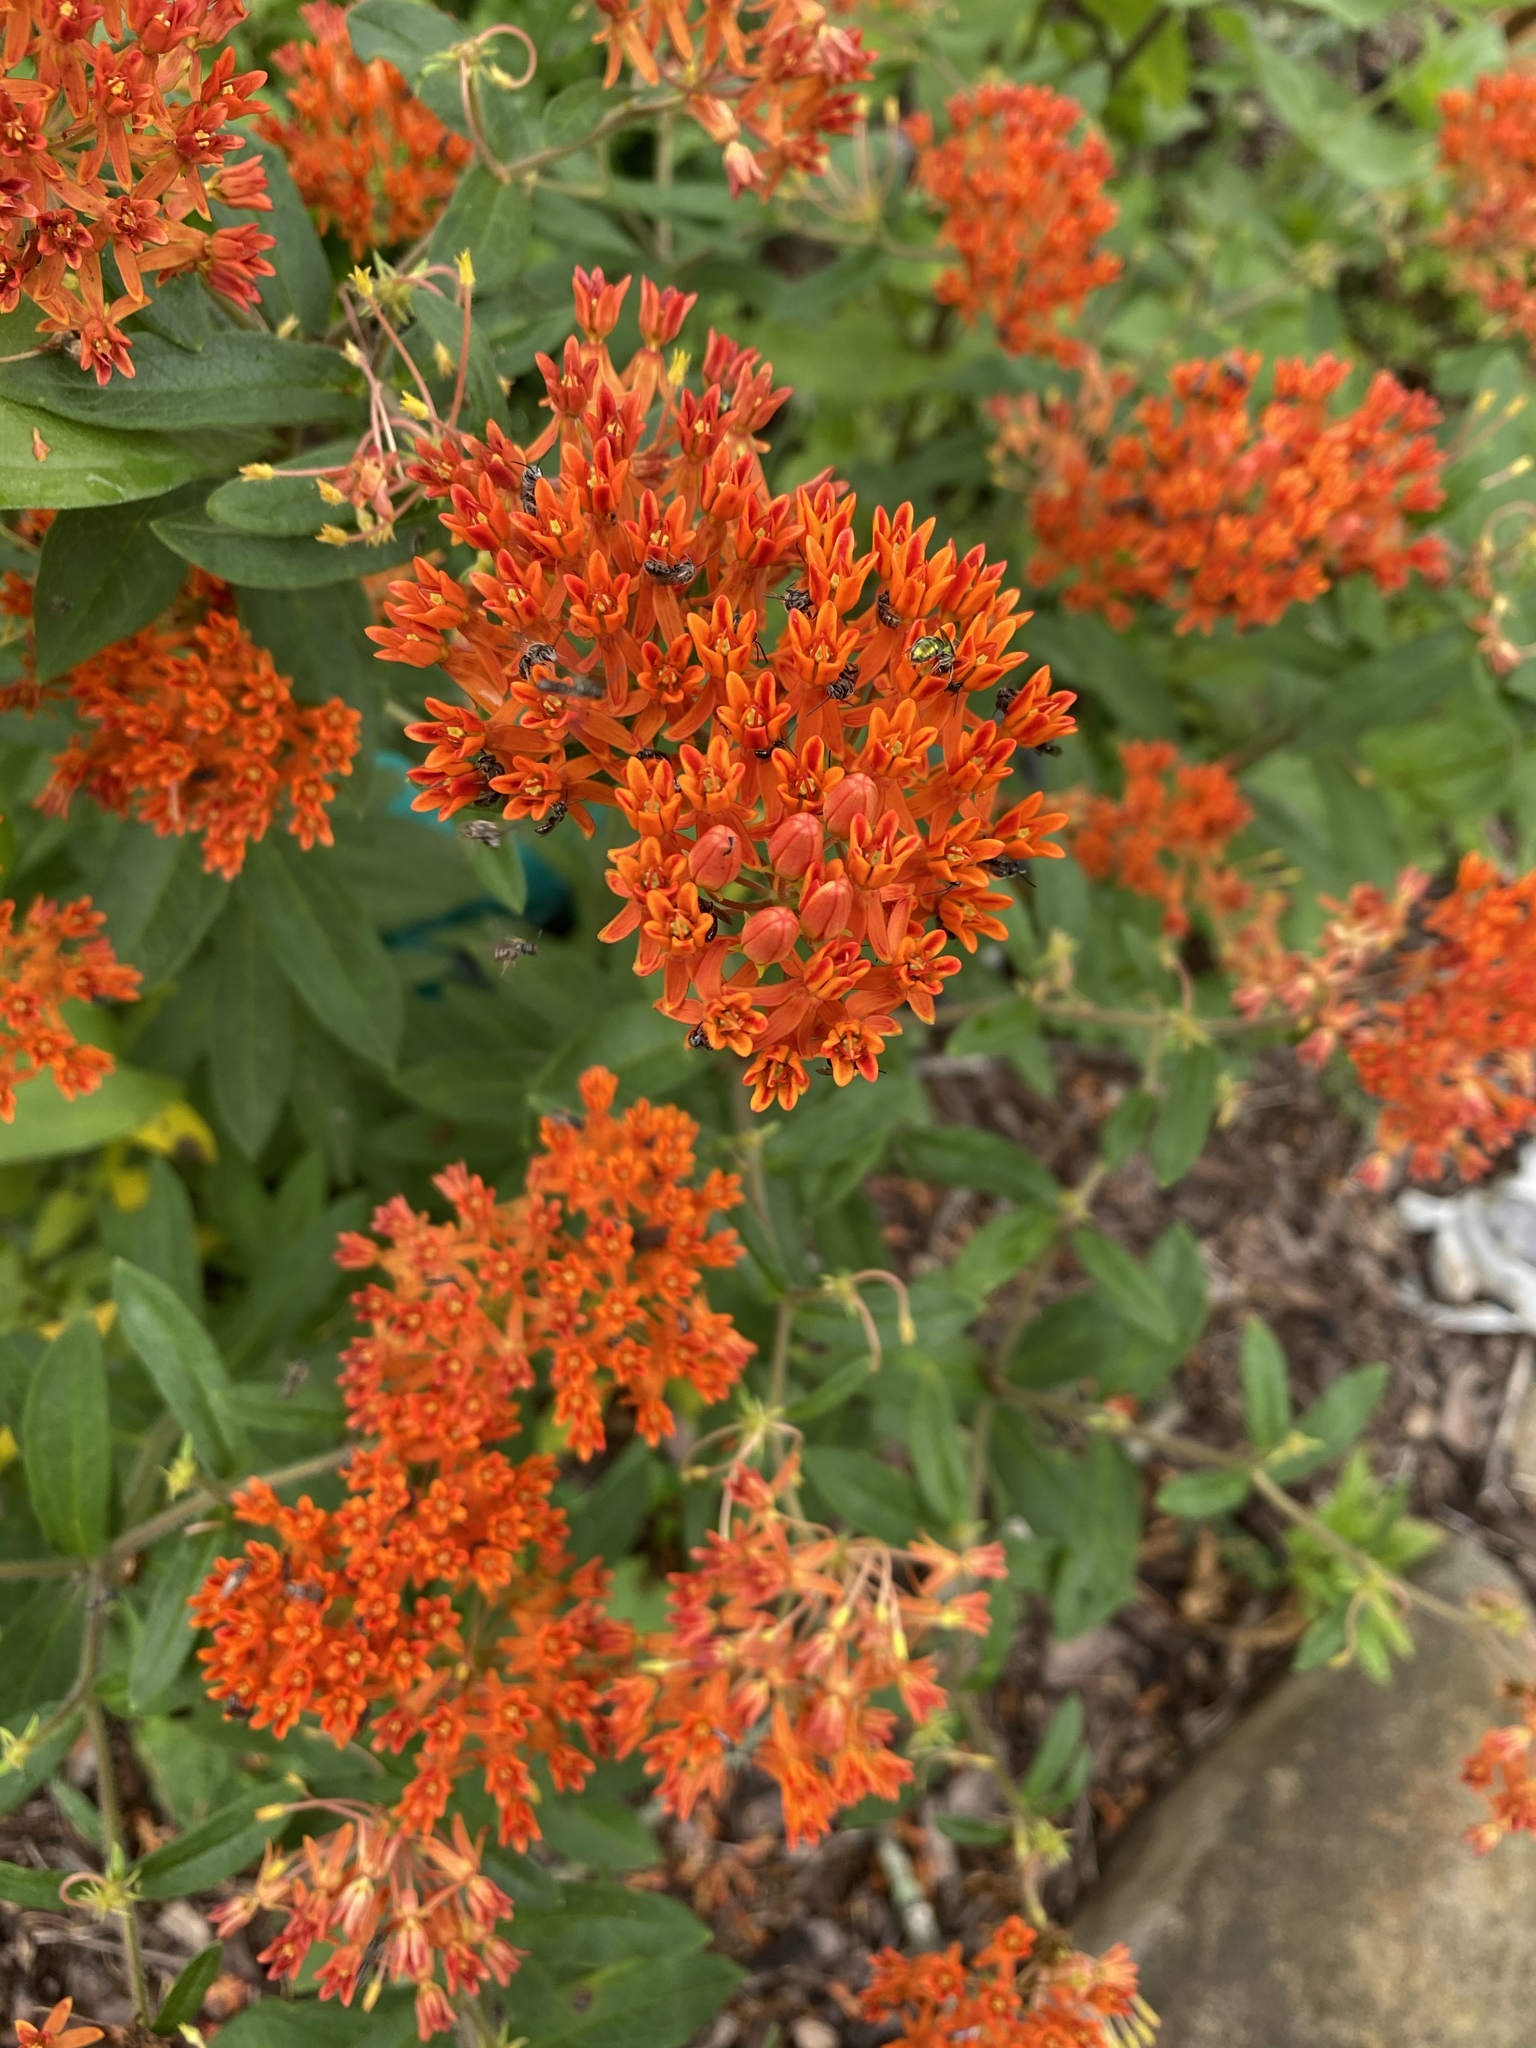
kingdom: Plantae
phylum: Tracheophyta
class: Magnoliopsida
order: Gentianales
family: Apocynaceae
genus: Asclepias
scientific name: Asclepias tuberosa
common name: Butterfly milkweed
